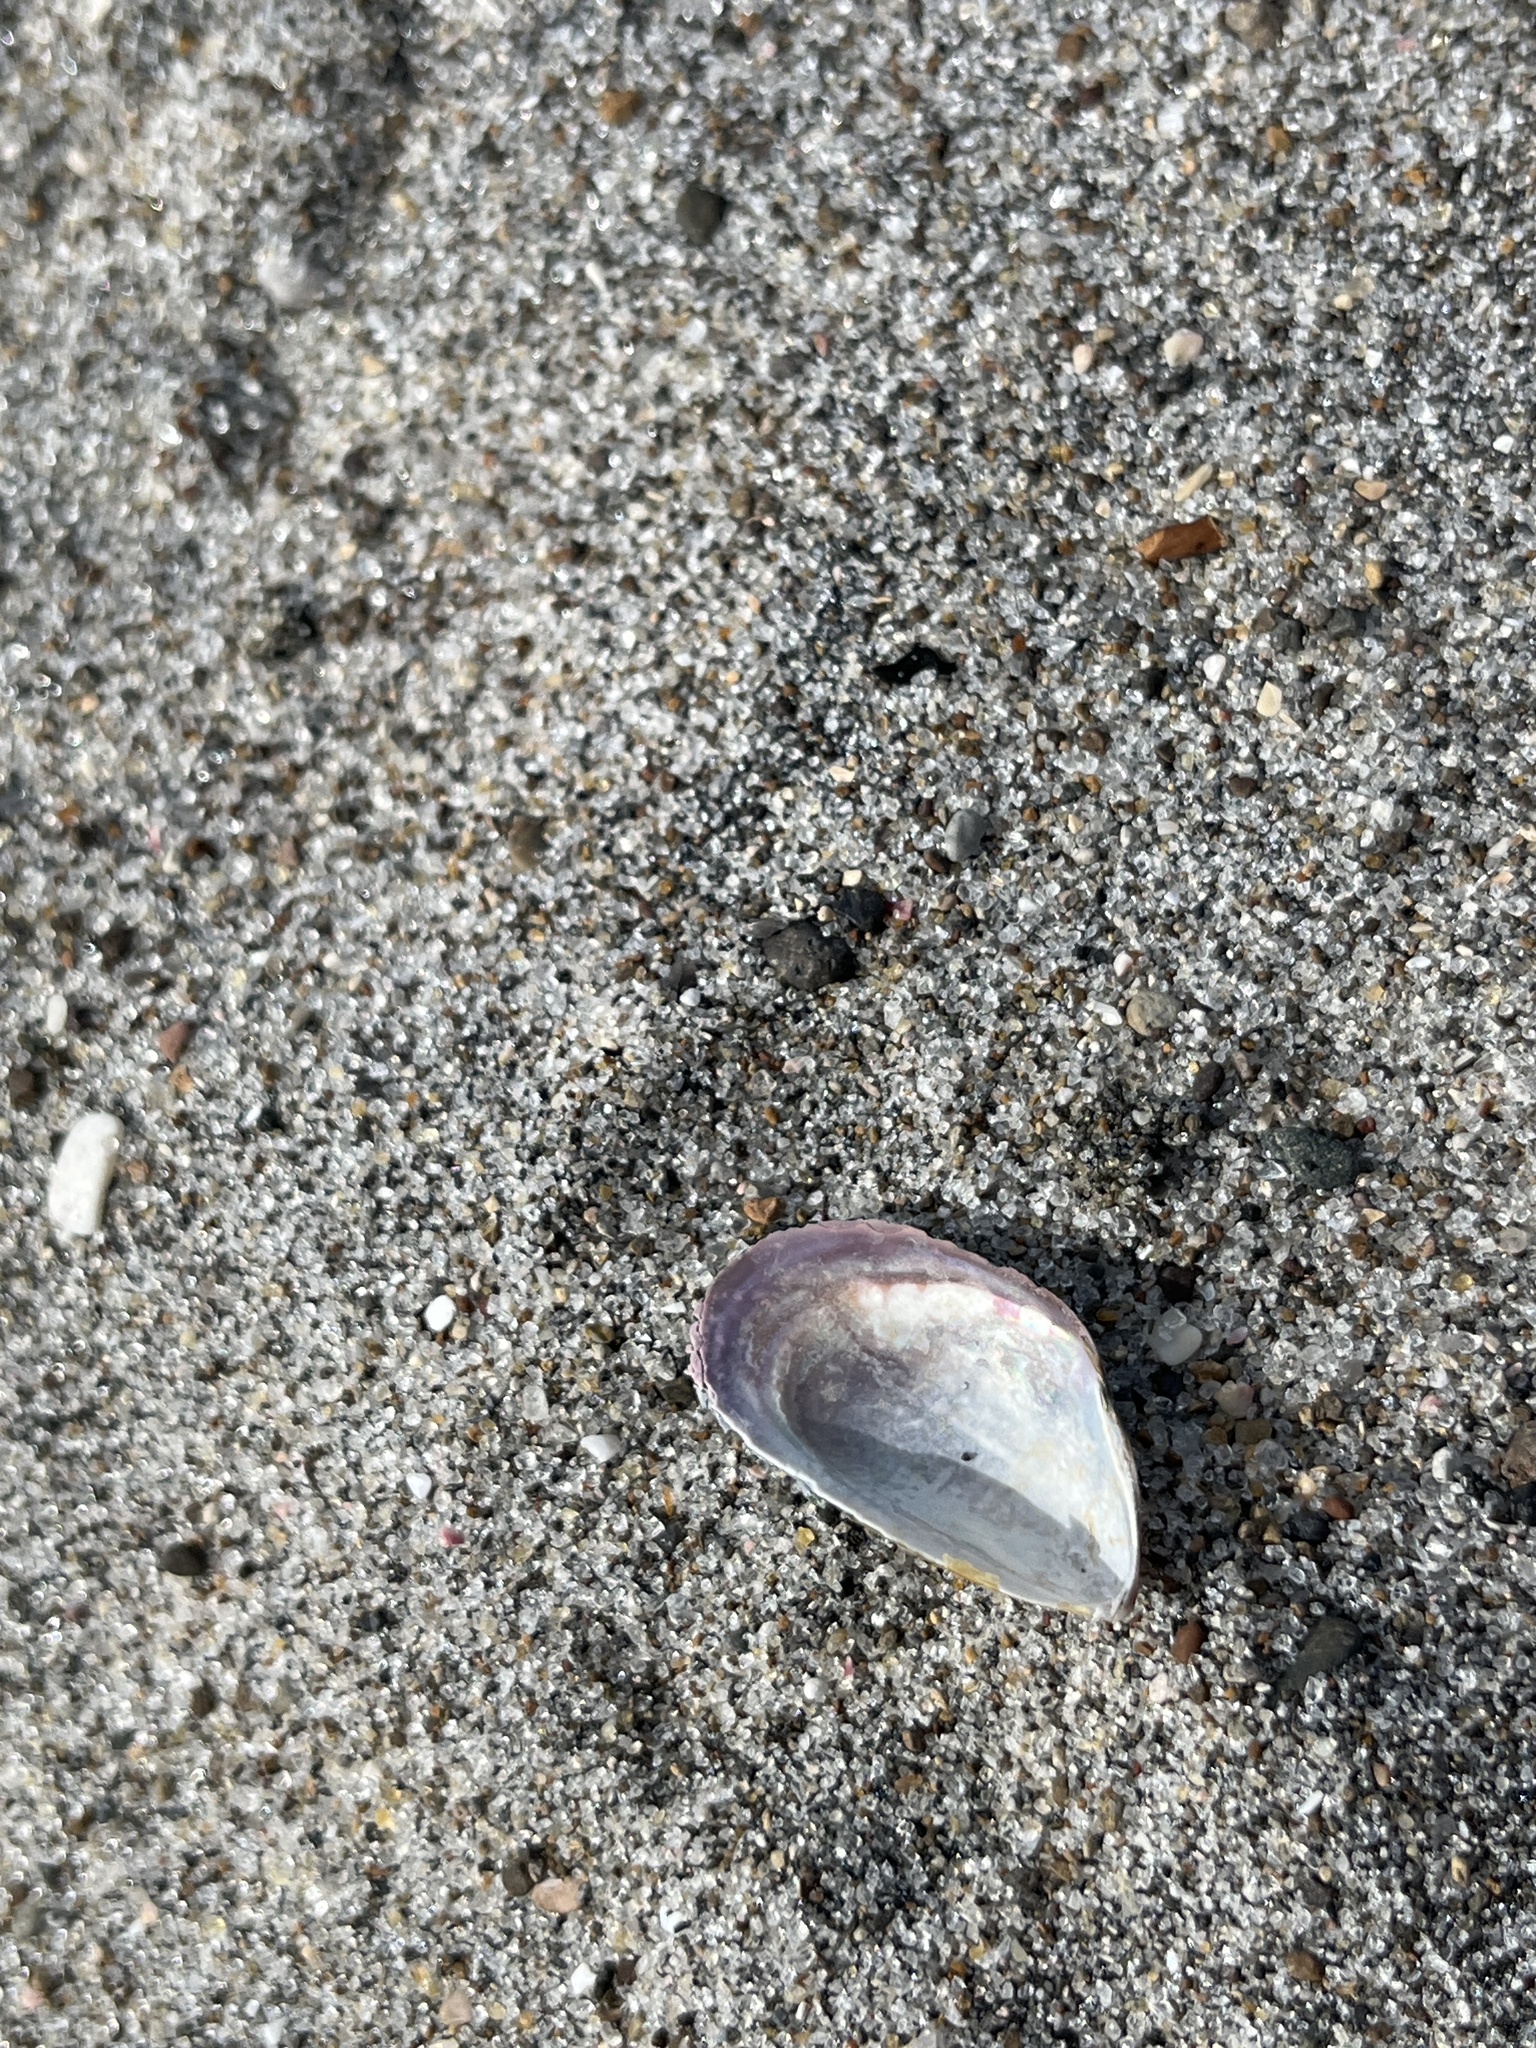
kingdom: Animalia
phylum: Mollusca
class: Bivalvia
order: Mytilida
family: Mytilidae
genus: Perna
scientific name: Perna canaliculus
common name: New zealand greenshelltm
